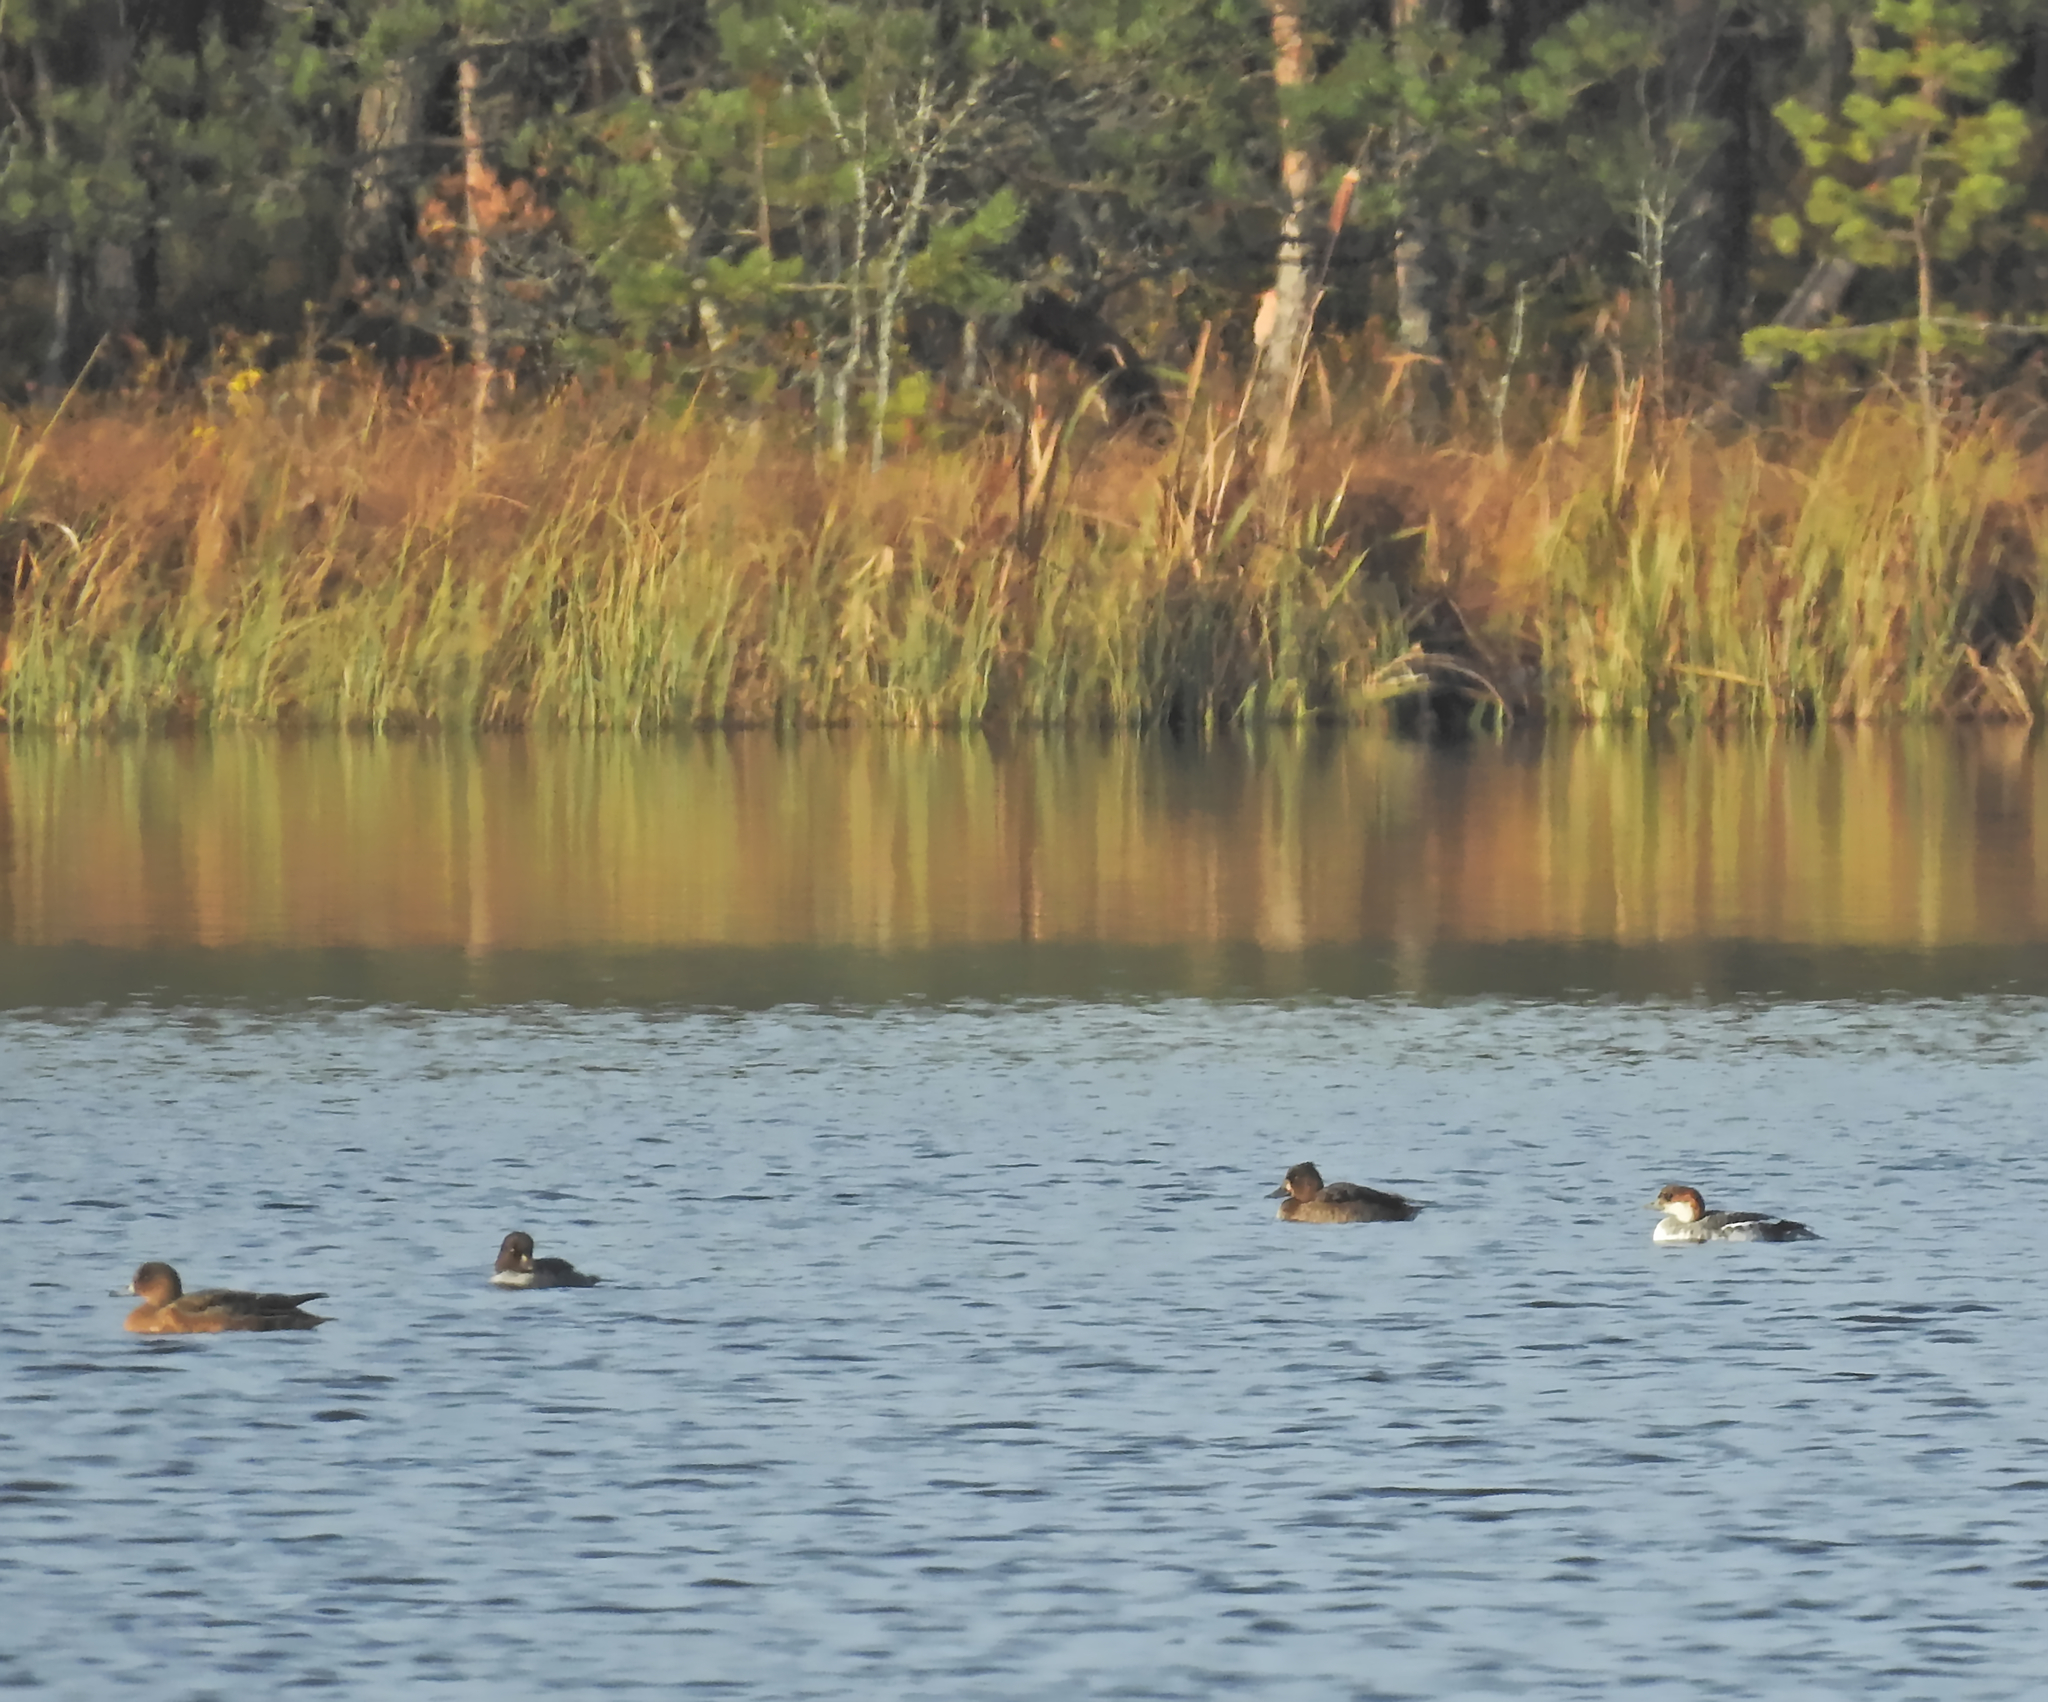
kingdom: Animalia
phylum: Chordata
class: Aves
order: Anseriformes
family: Anatidae
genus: Mergellus
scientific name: Mergellus albellus
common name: Smew
